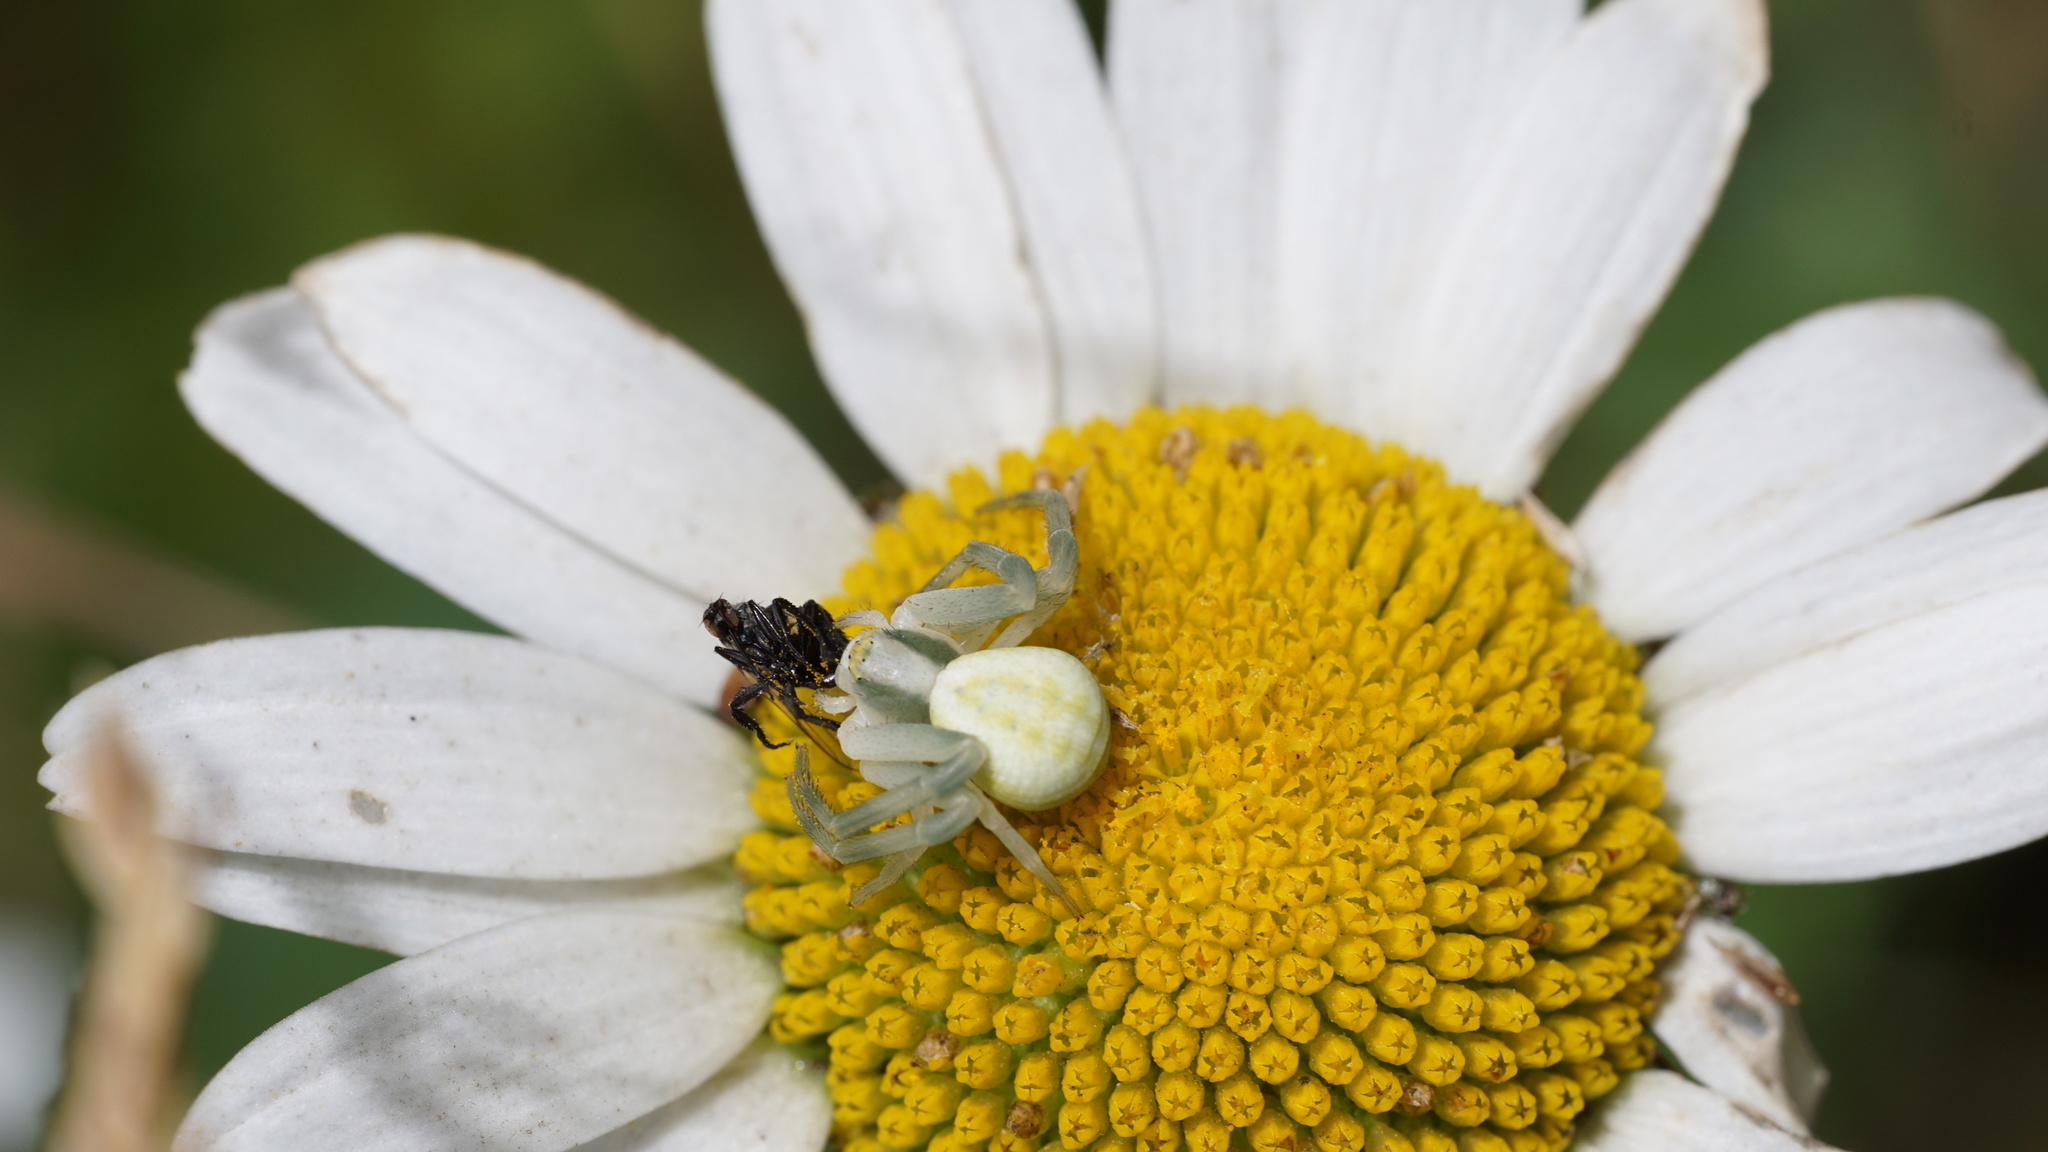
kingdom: Animalia
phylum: Arthropoda
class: Arachnida
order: Araneae
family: Thomisidae
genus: Misumena
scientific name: Misumena vatia
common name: Goldenrod crab spider
